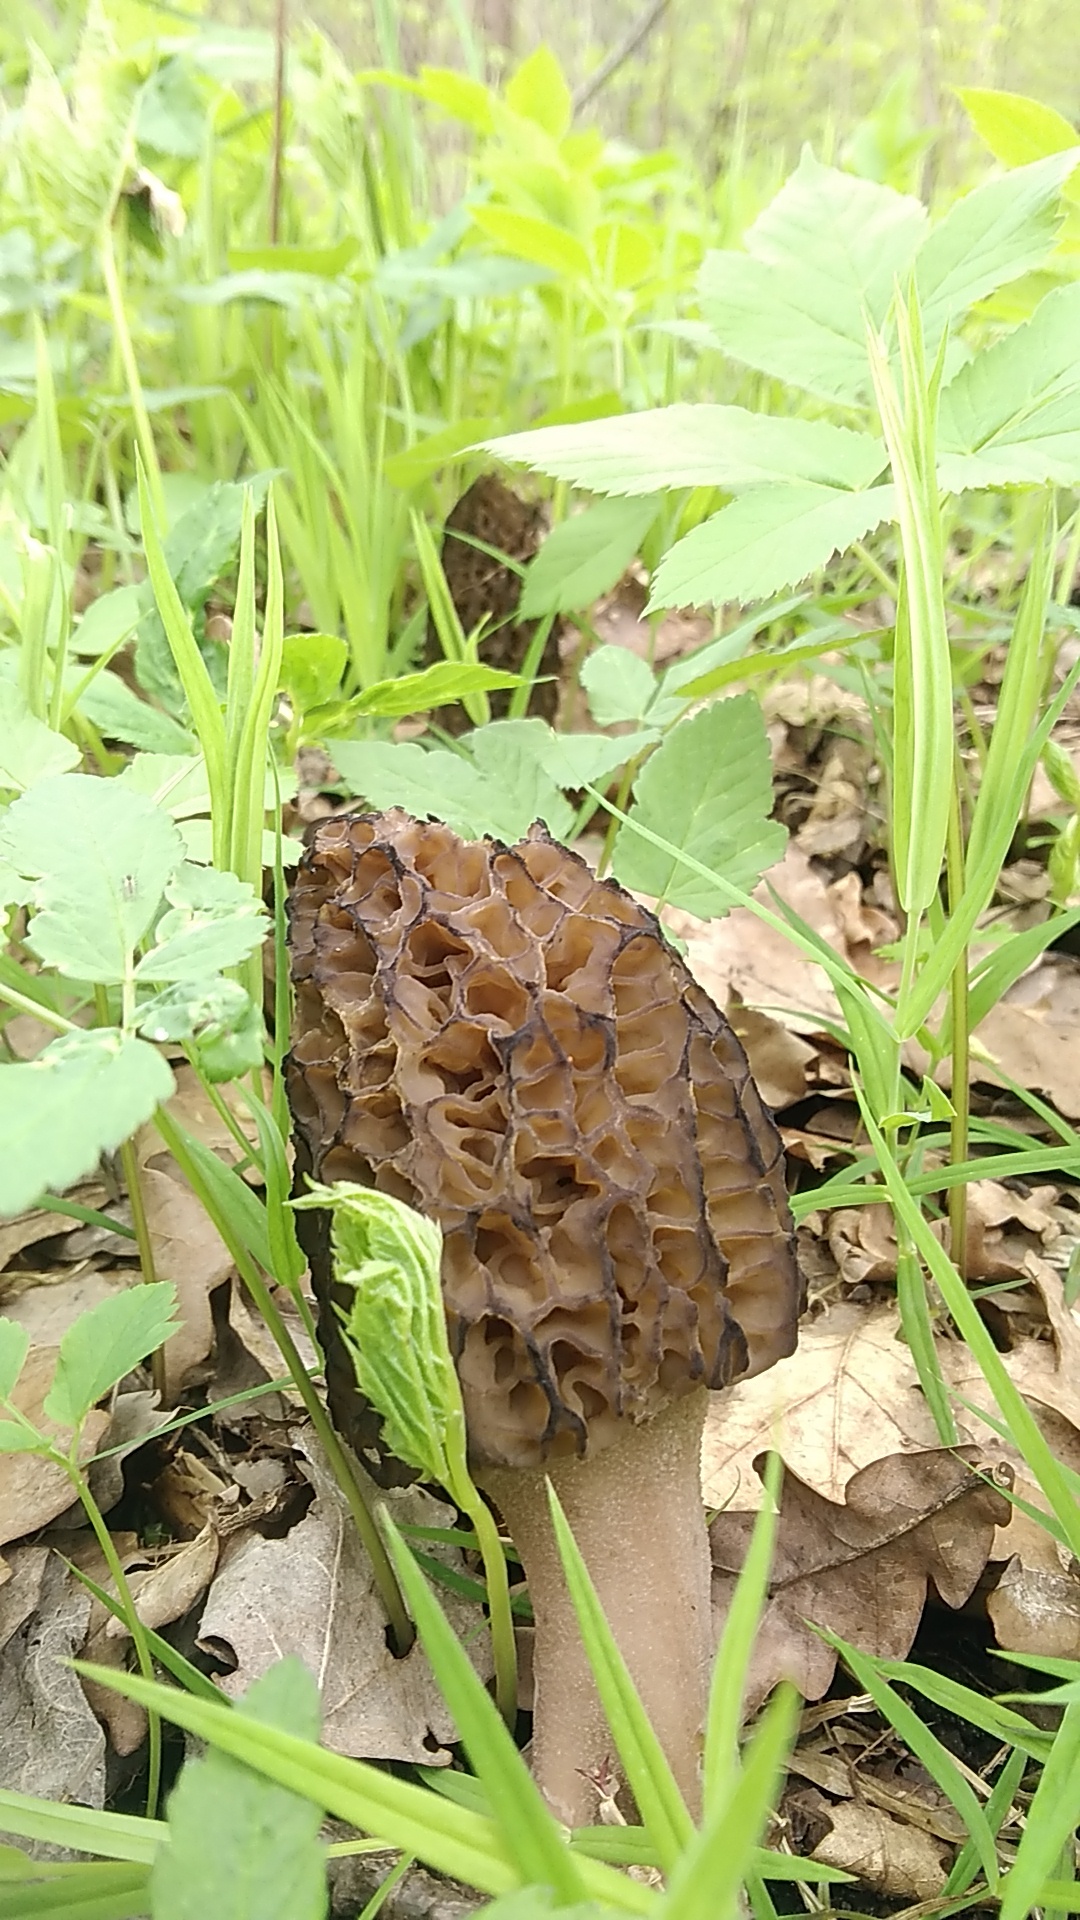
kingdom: Fungi
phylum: Ascomycota
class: Pezizomycetes
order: Pezizales
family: Morchellaceae
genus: Morchella
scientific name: Morchella
